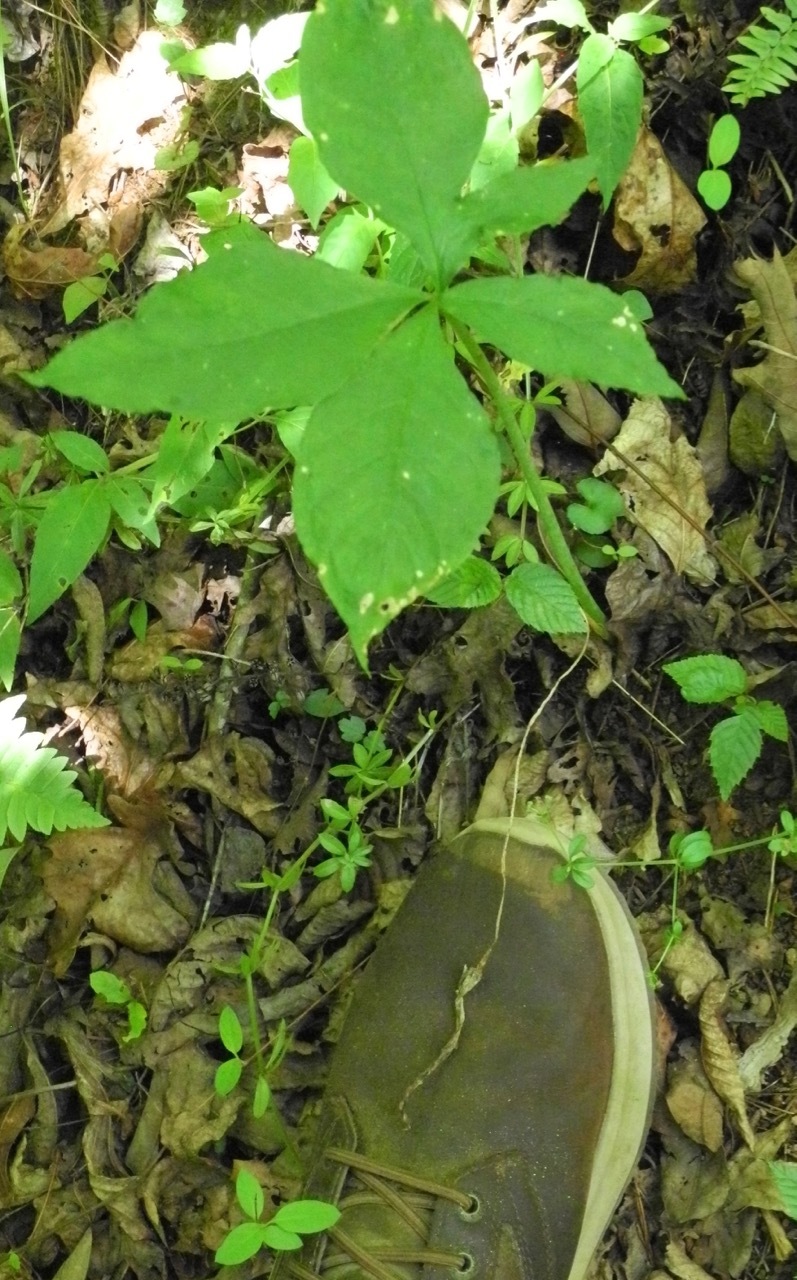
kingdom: Plantae
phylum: Tracheophyta
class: Liliopsida
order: Alismatales
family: Araceae
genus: Arisaema
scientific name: Arisaema quinatum
